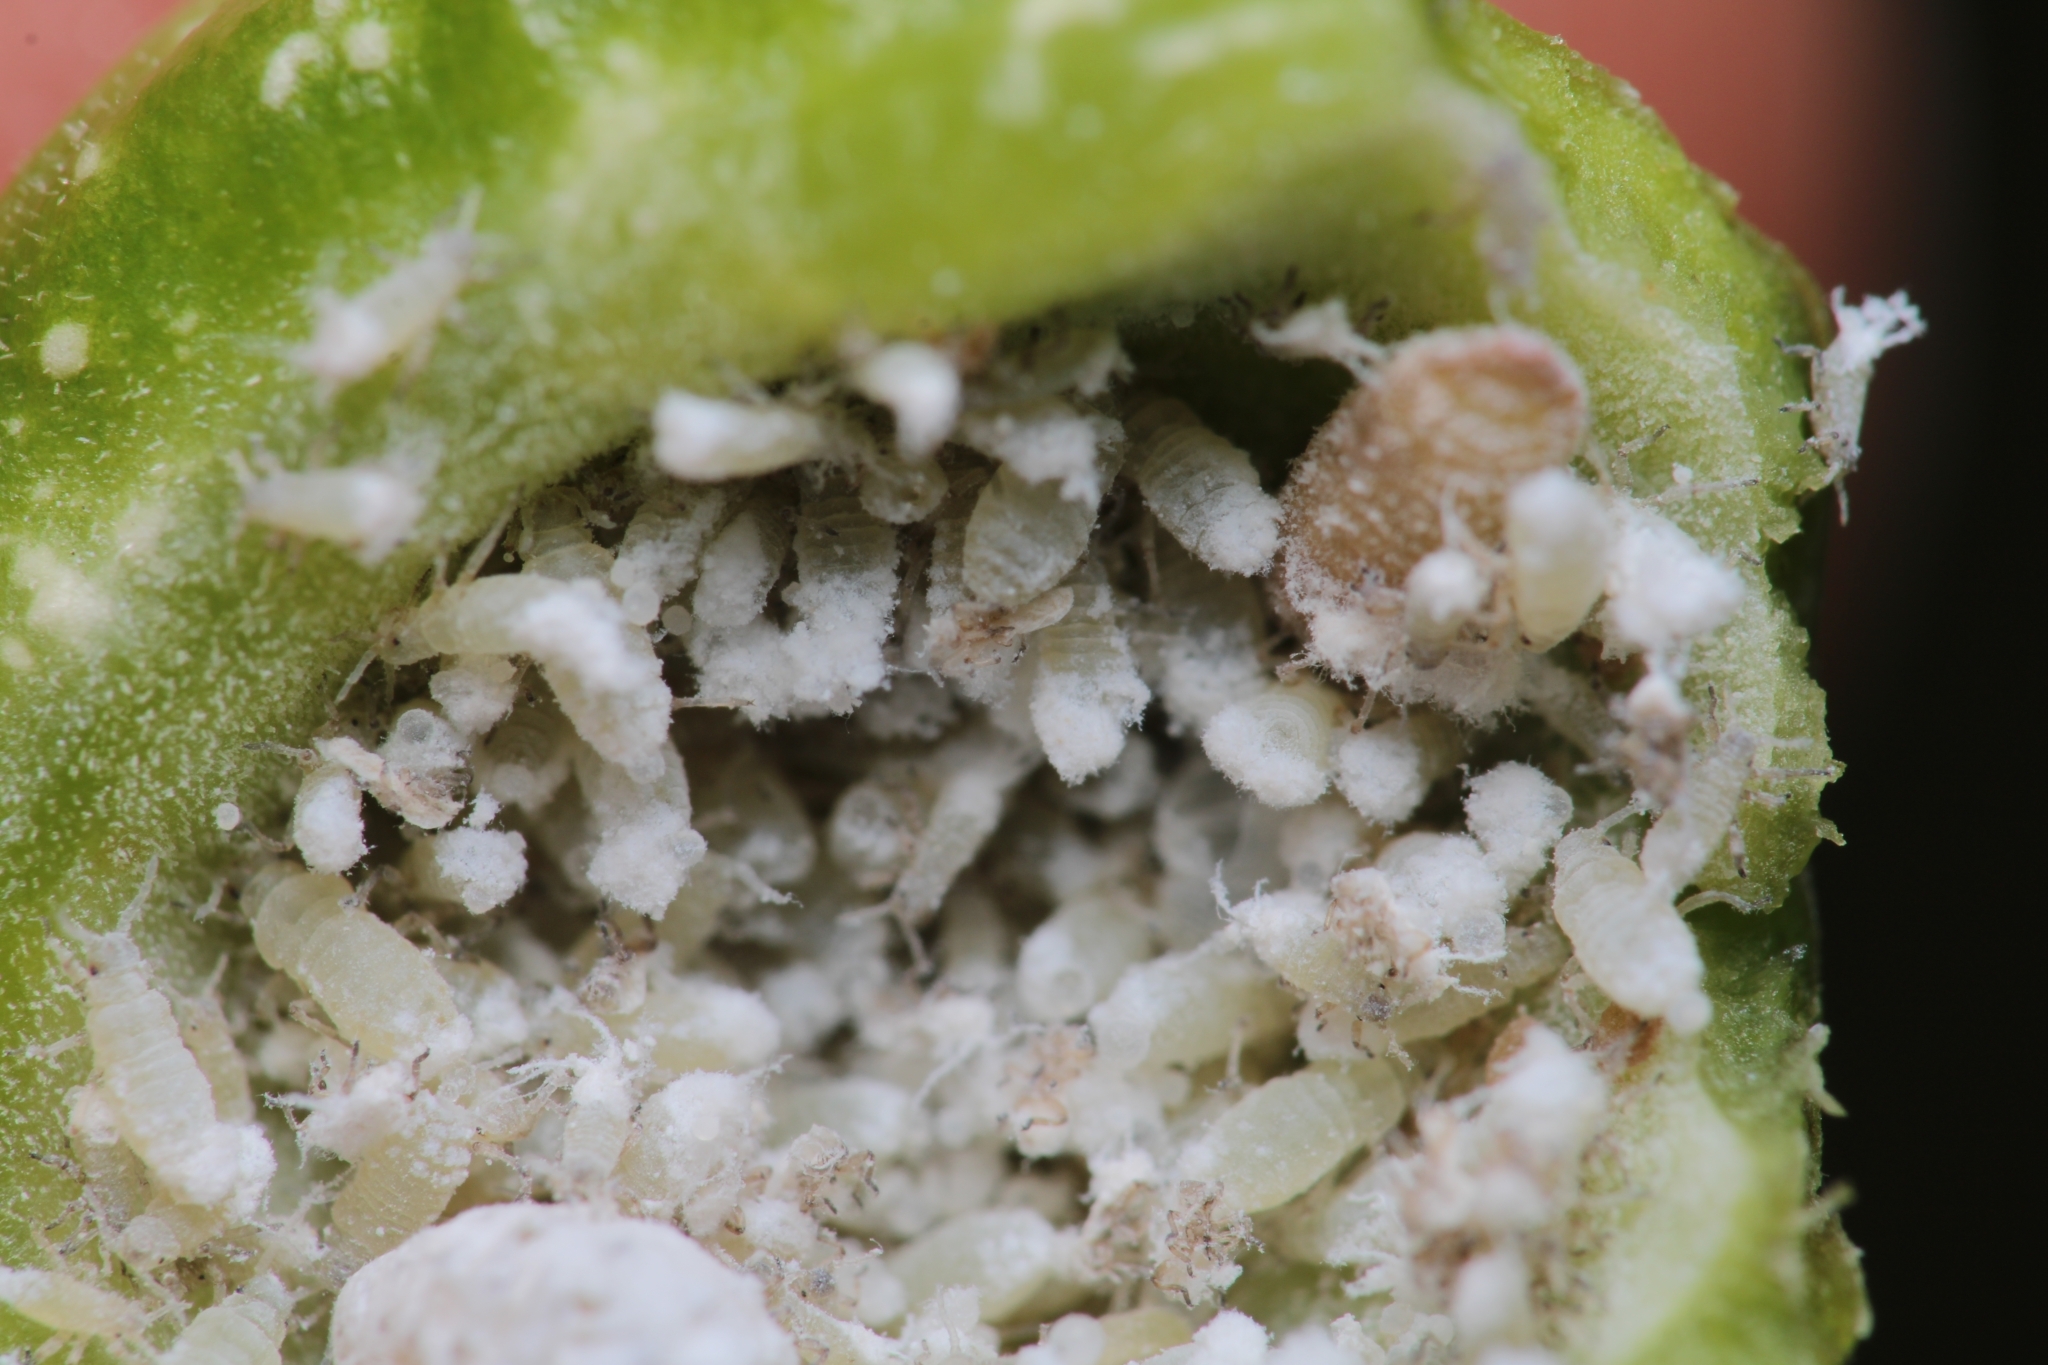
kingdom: Animalia
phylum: Arthropoda
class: Insecta
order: Hemiptera
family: Aphididae
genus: Pemphigus
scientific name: Pemphigus populicaulis
